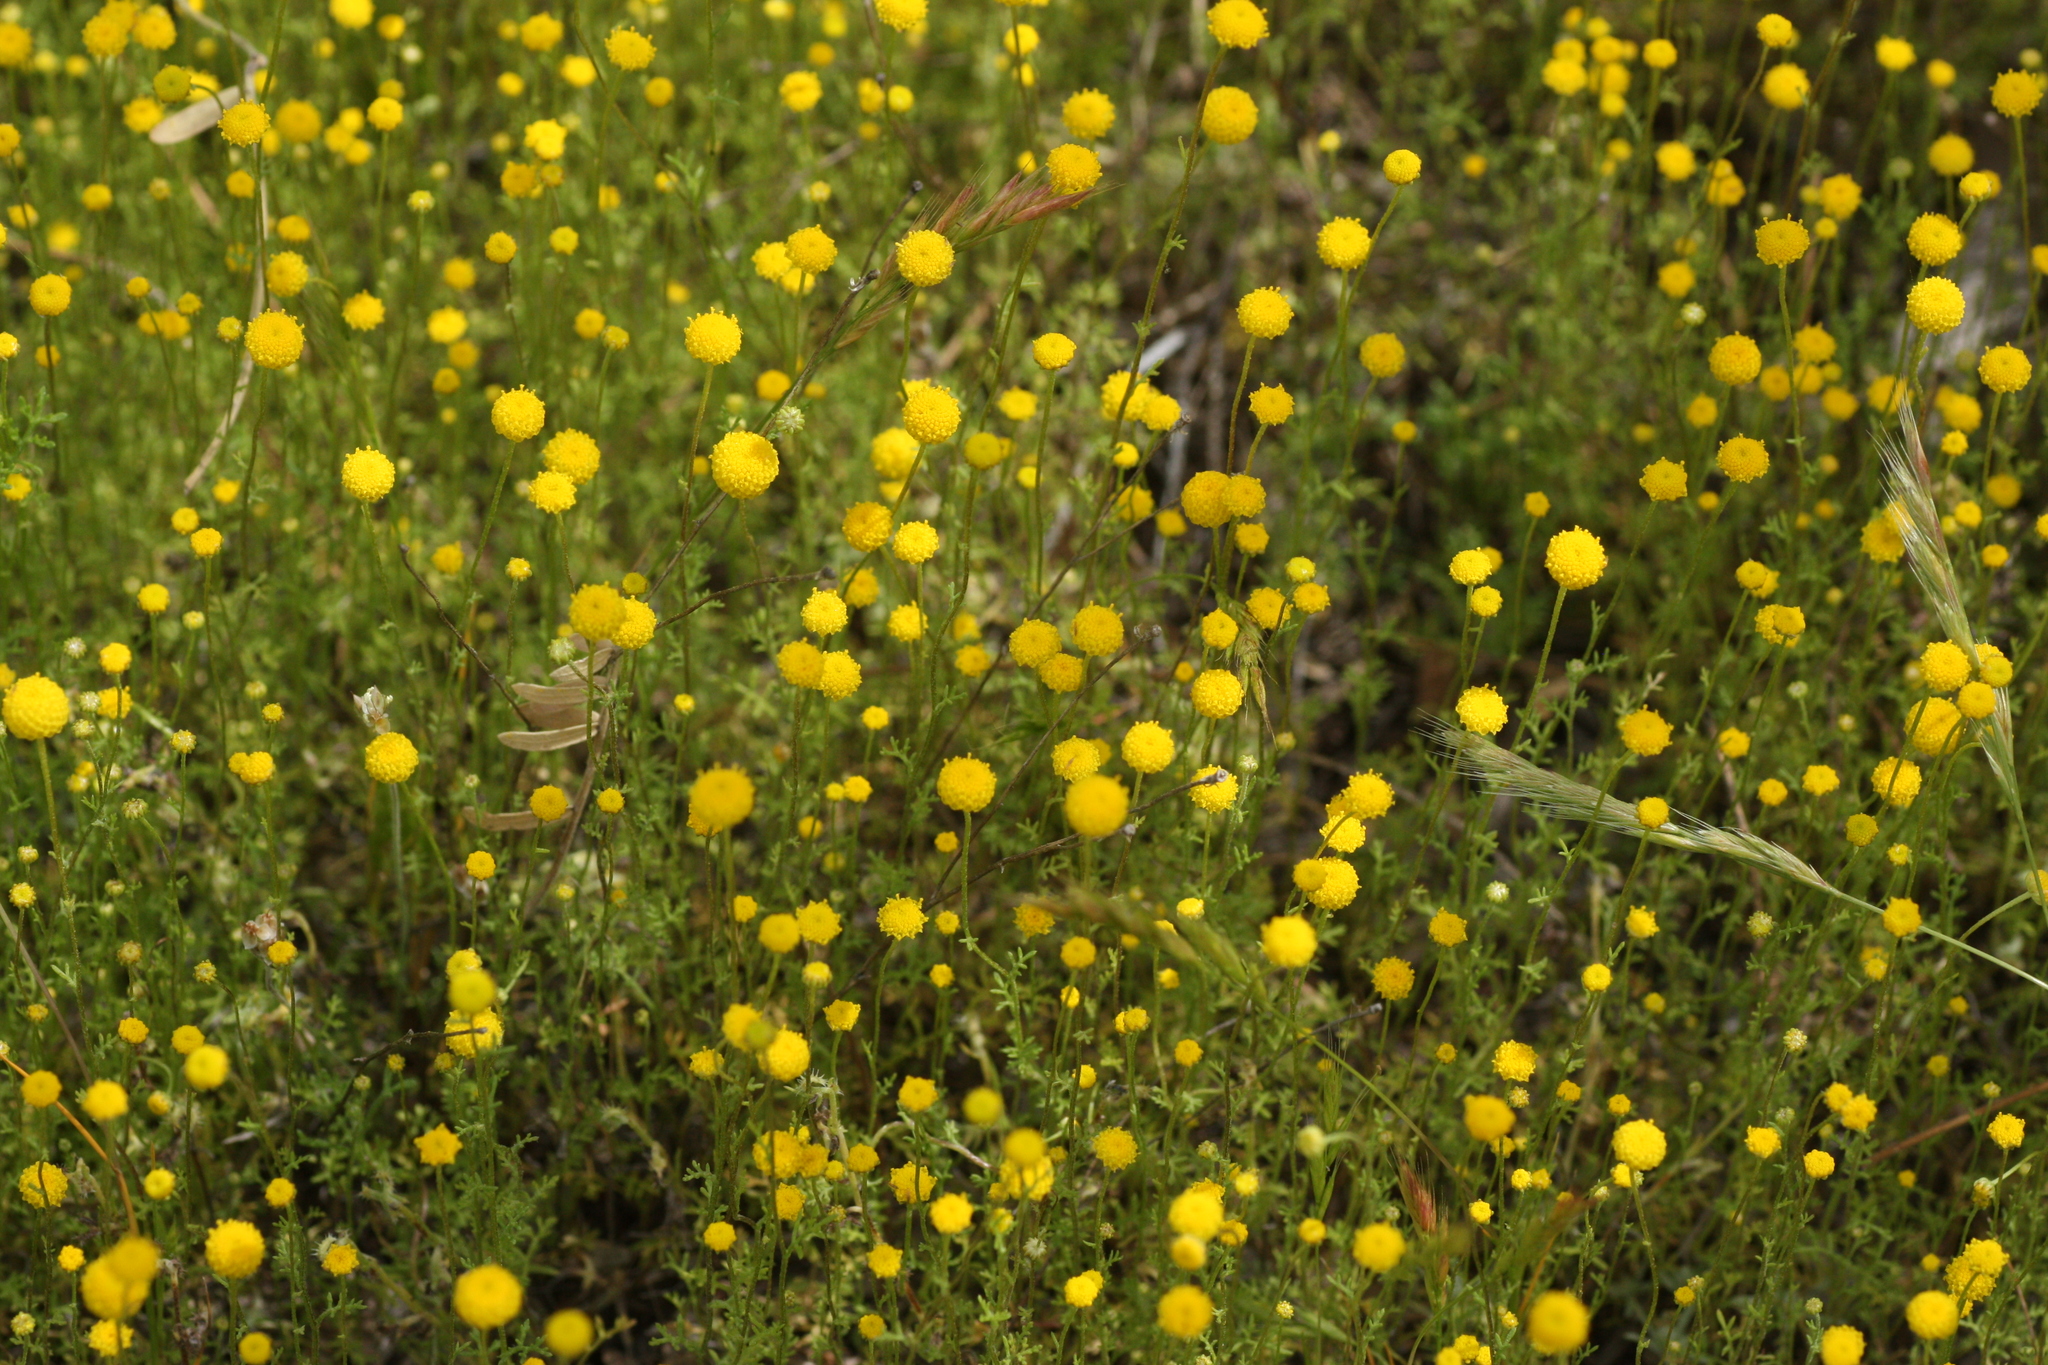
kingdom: Plantae
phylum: Tracheophyta
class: Magnoliopsida
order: Asterales
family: Asteraceae
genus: Oncosiphon
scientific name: Oncosiphon pilulifer
